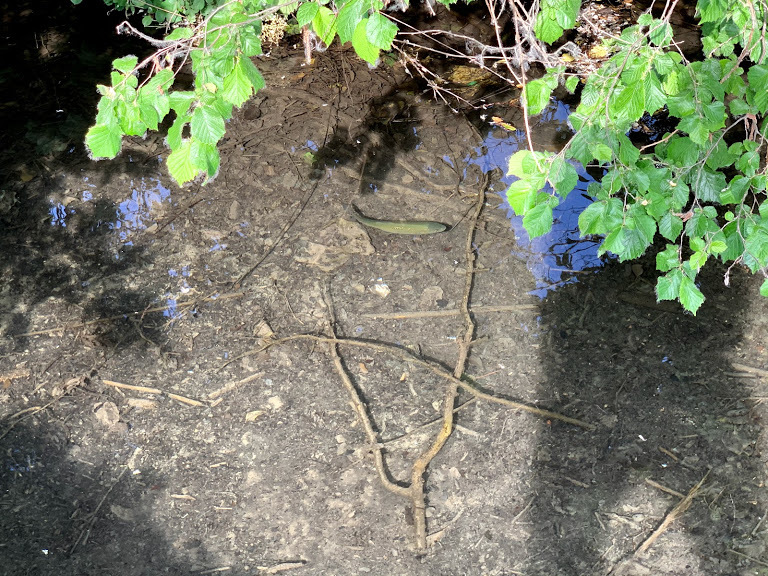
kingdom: Animalia
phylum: Chordata
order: Cypriniformes
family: Cyprinidae
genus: Squalius
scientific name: Squalius squalus
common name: Italian chub
